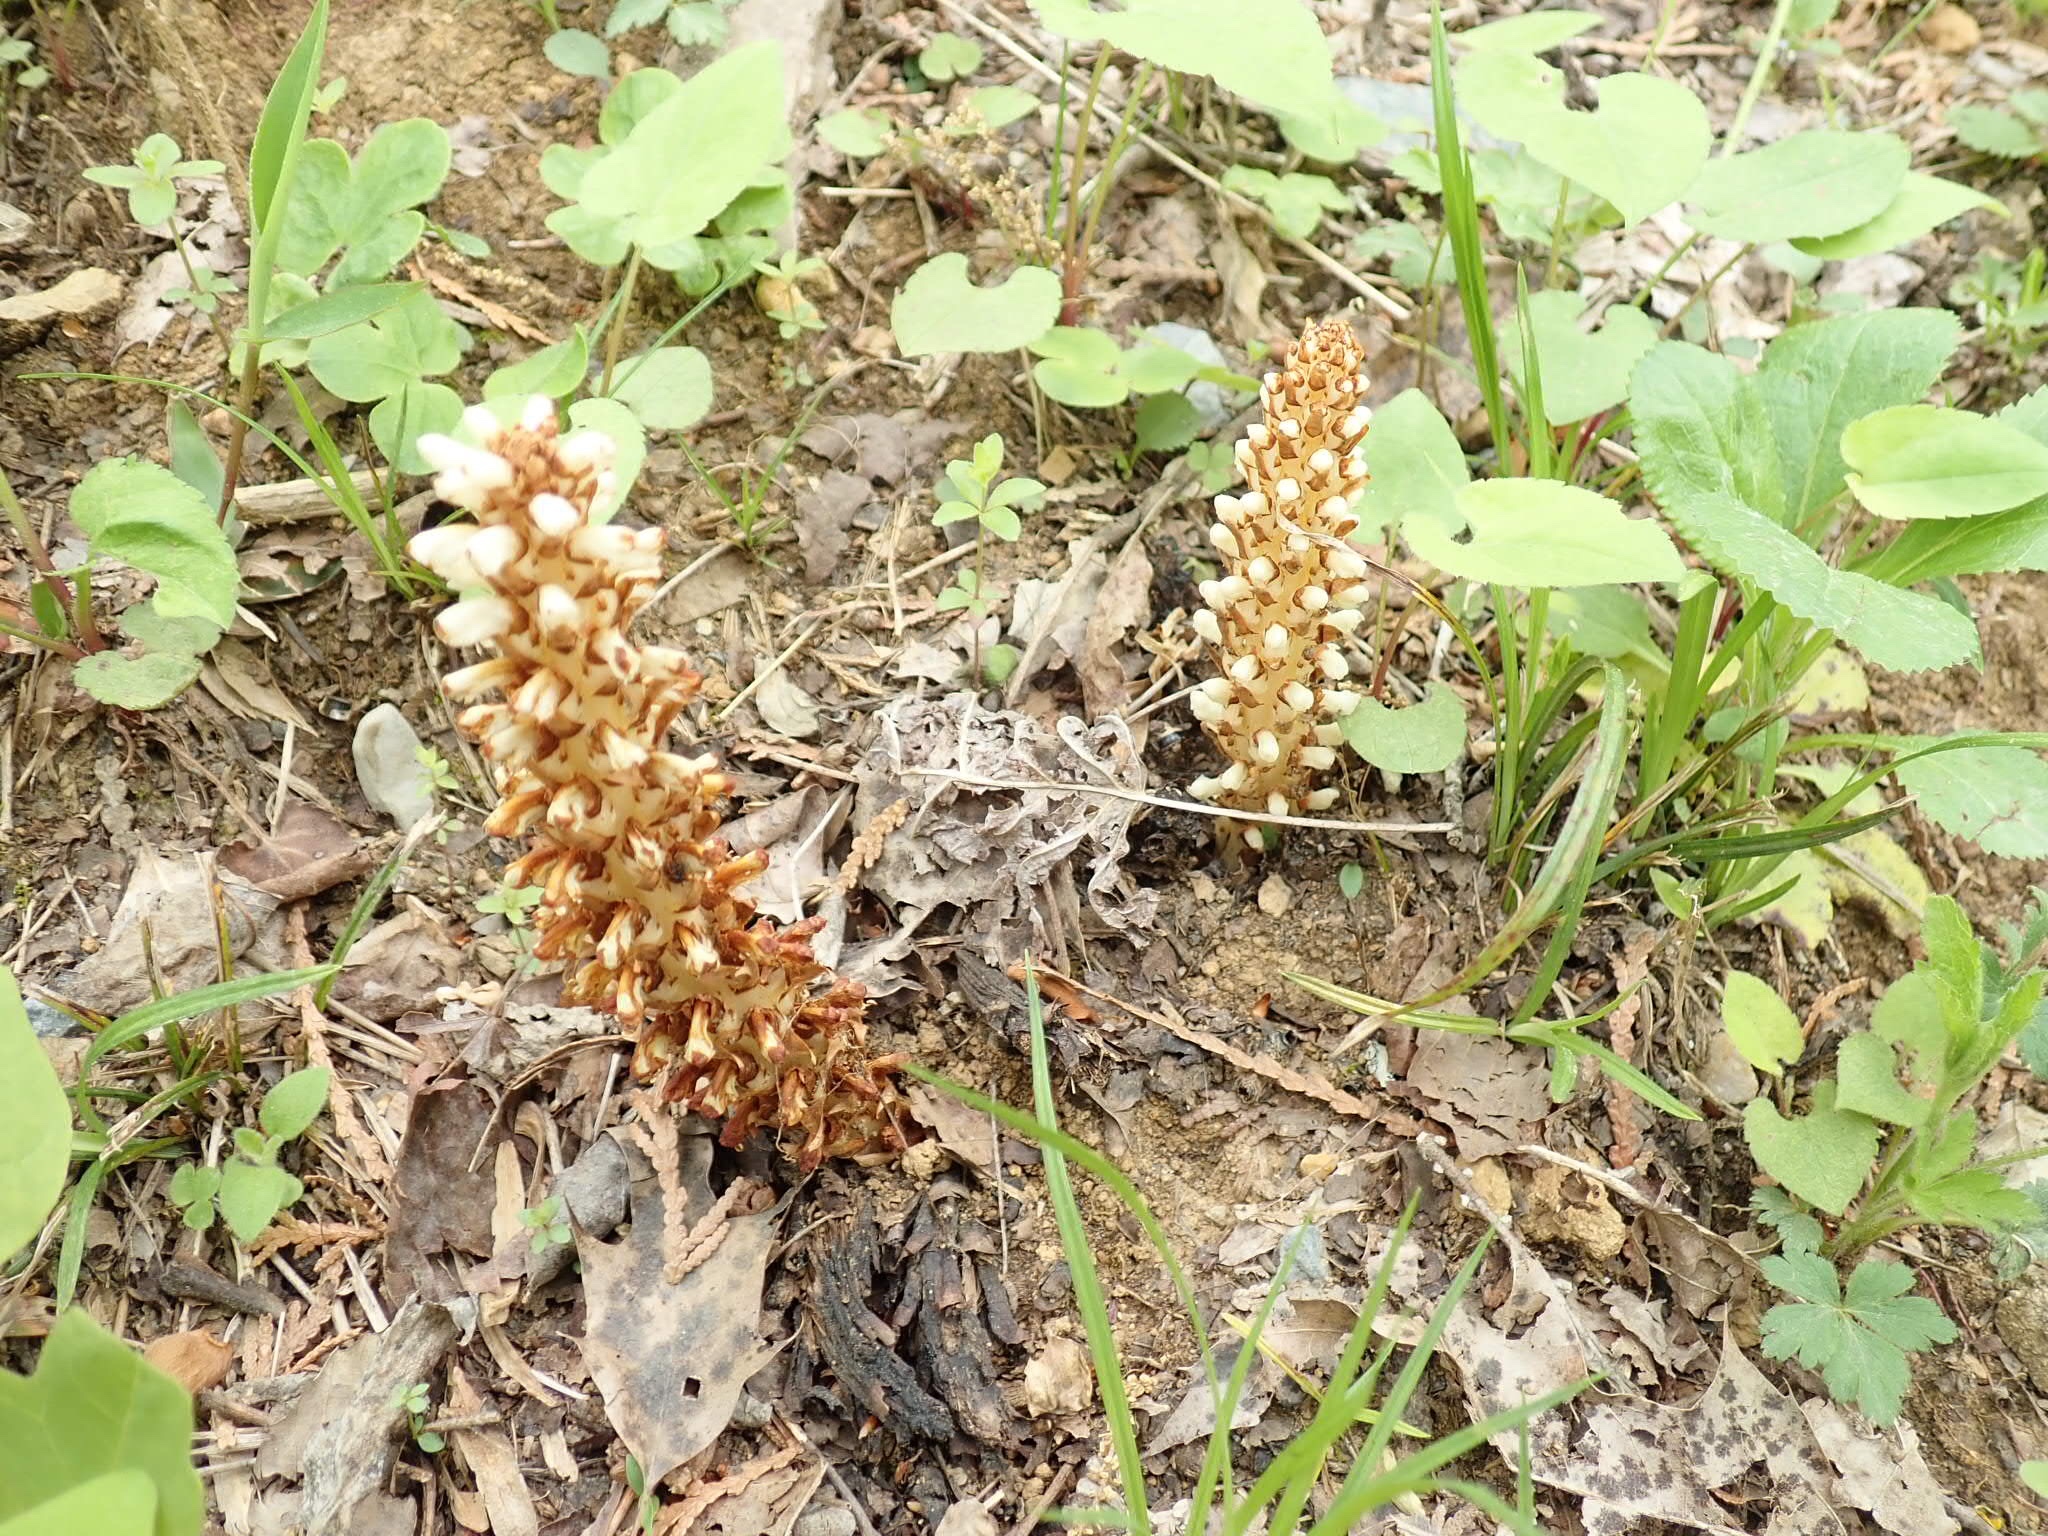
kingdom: Plantae
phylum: Tracheophyta
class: Magnoliopsida
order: Lamiales
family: Orobanchaceae
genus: Conopholis
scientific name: Conopholis americana
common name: American cancer-root
